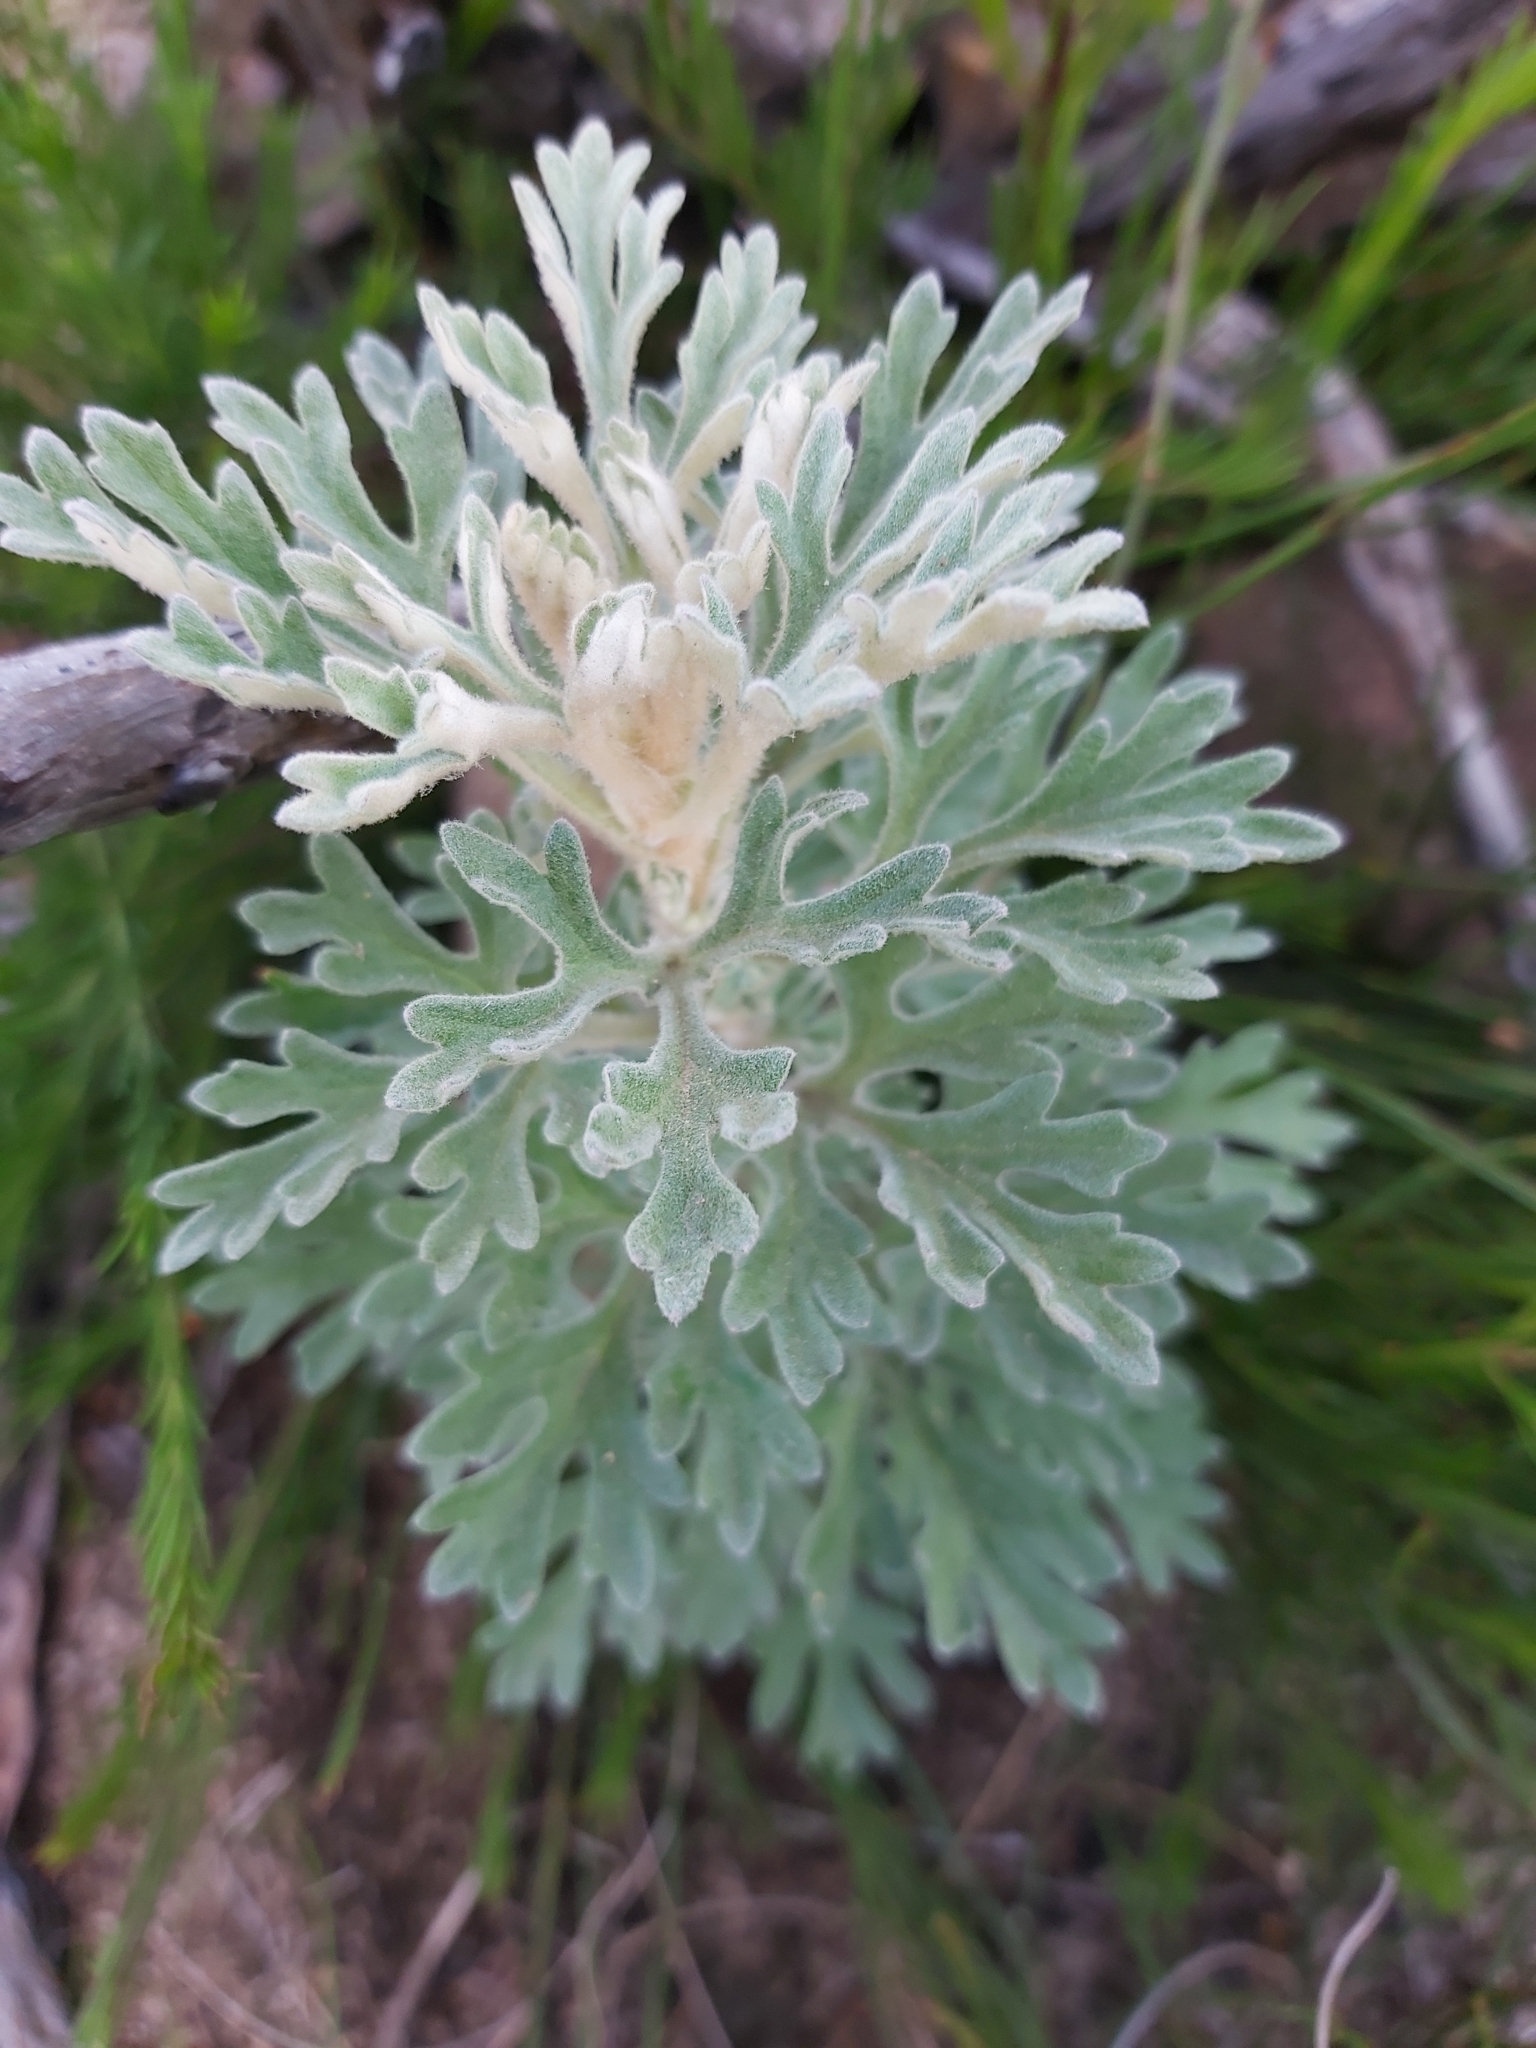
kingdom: Plantae
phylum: Tracheophyta
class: Magnoliopsida
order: Apiales
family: Apiaceae
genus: Actinotus
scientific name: Actinotus helianthi
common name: Flannel-flower
